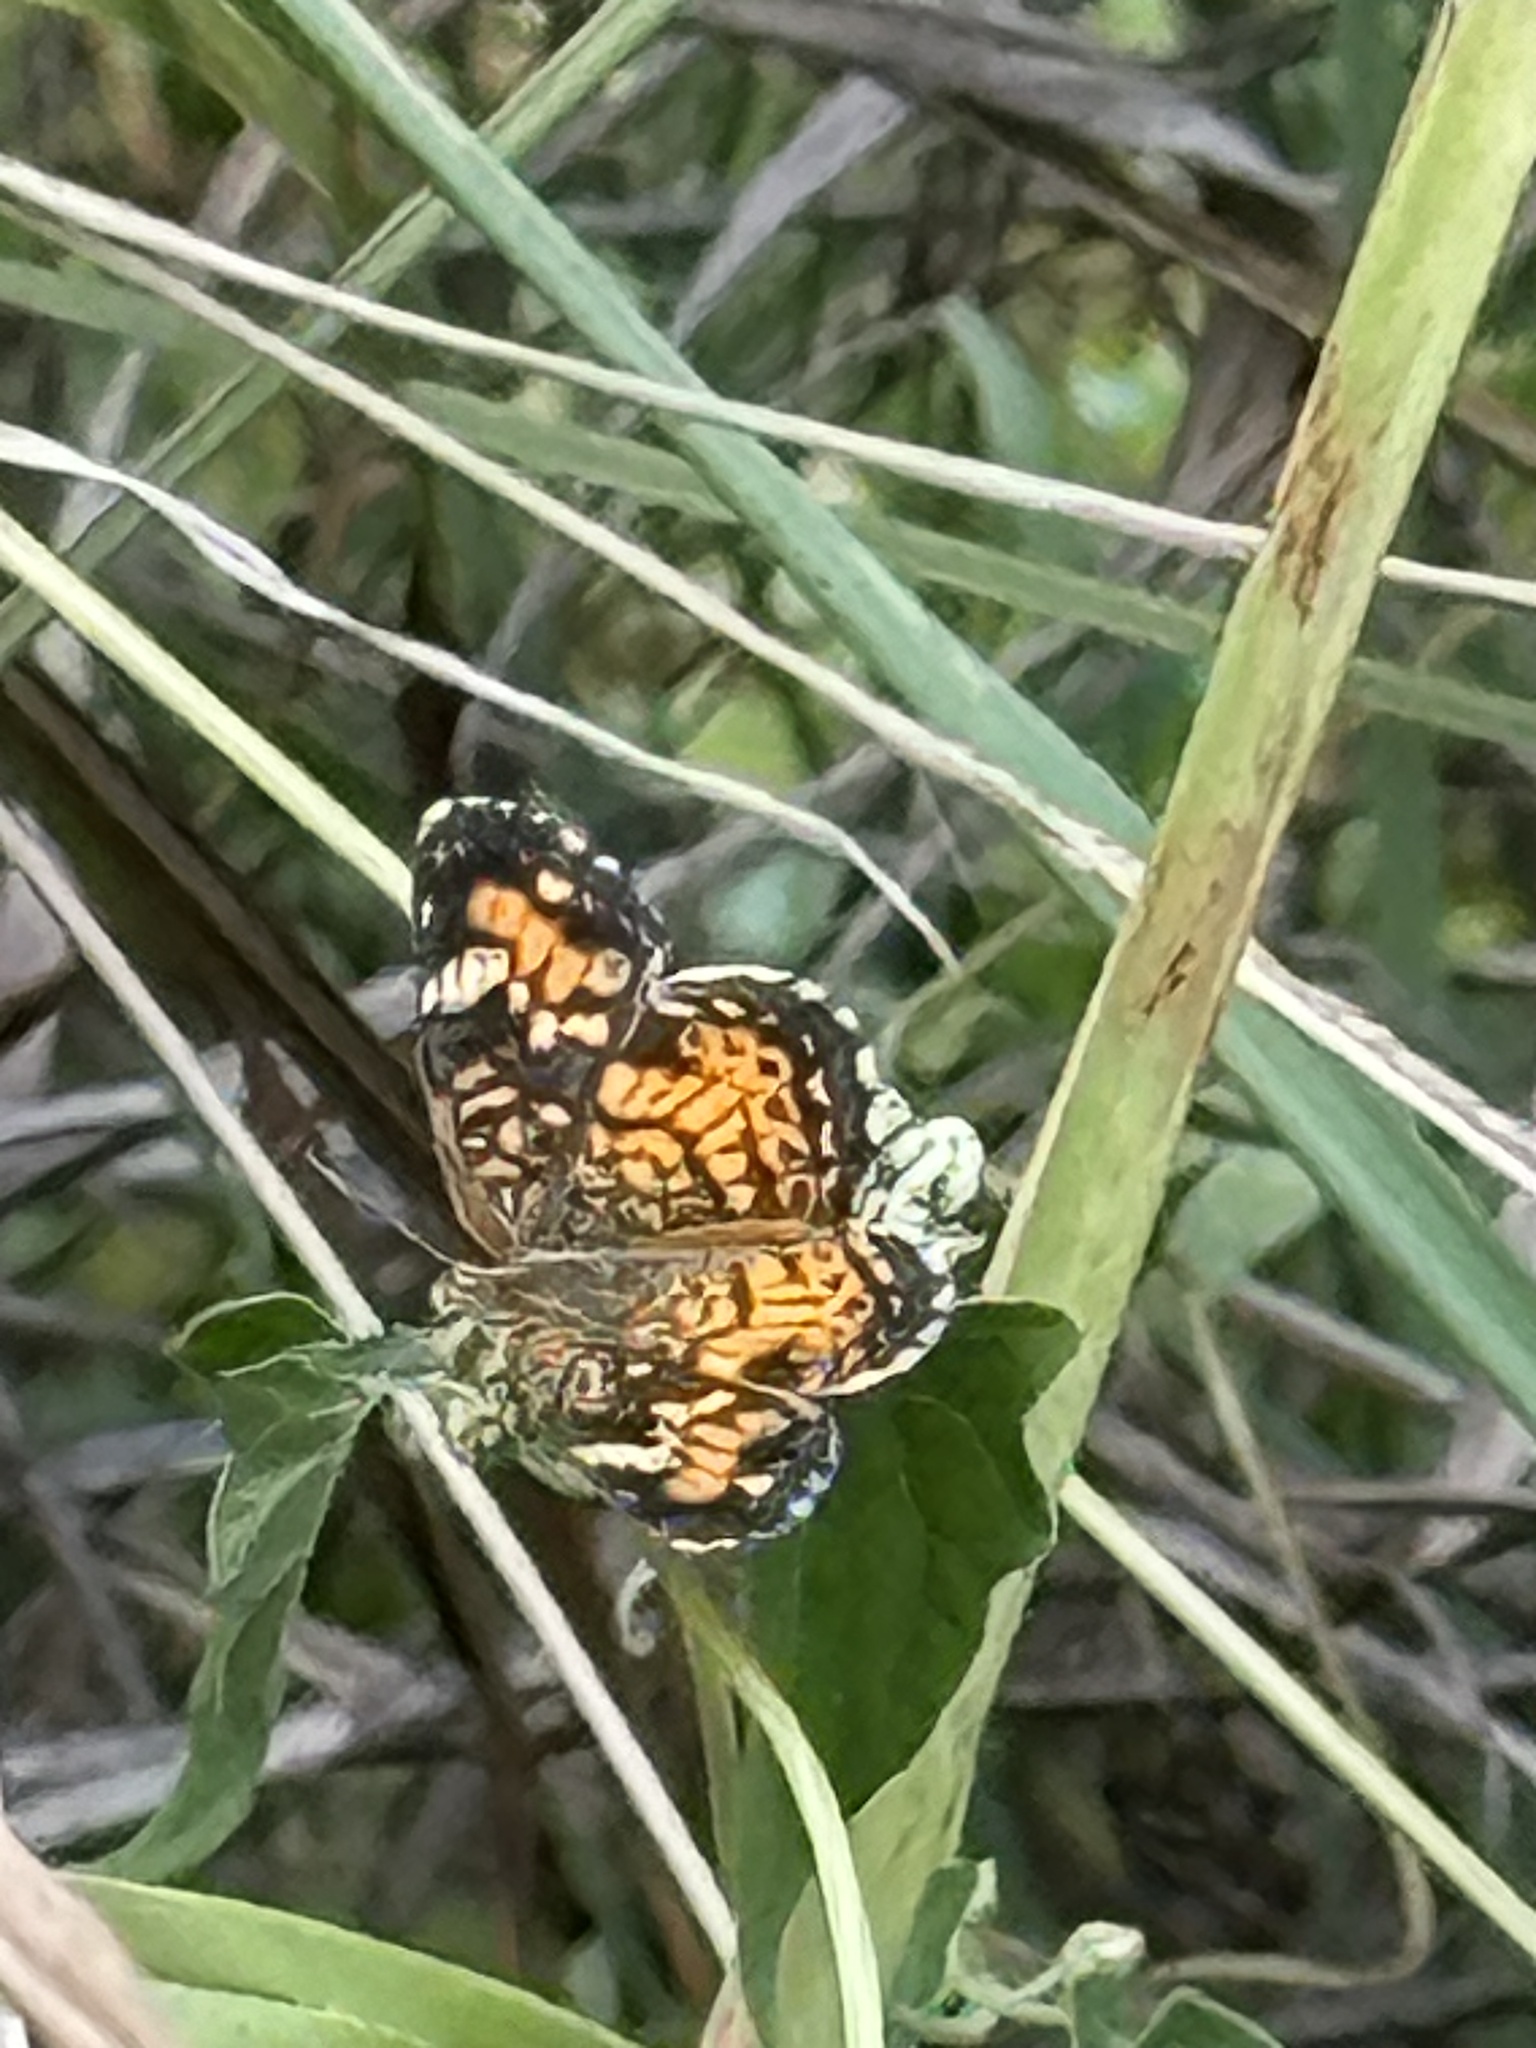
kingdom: Animalia
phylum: Arthropoda
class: Insecta
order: Lepidoptera
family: Nymphalidae
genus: Phyciodes
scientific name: Phyciodes phaon
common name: Phaon crescent
